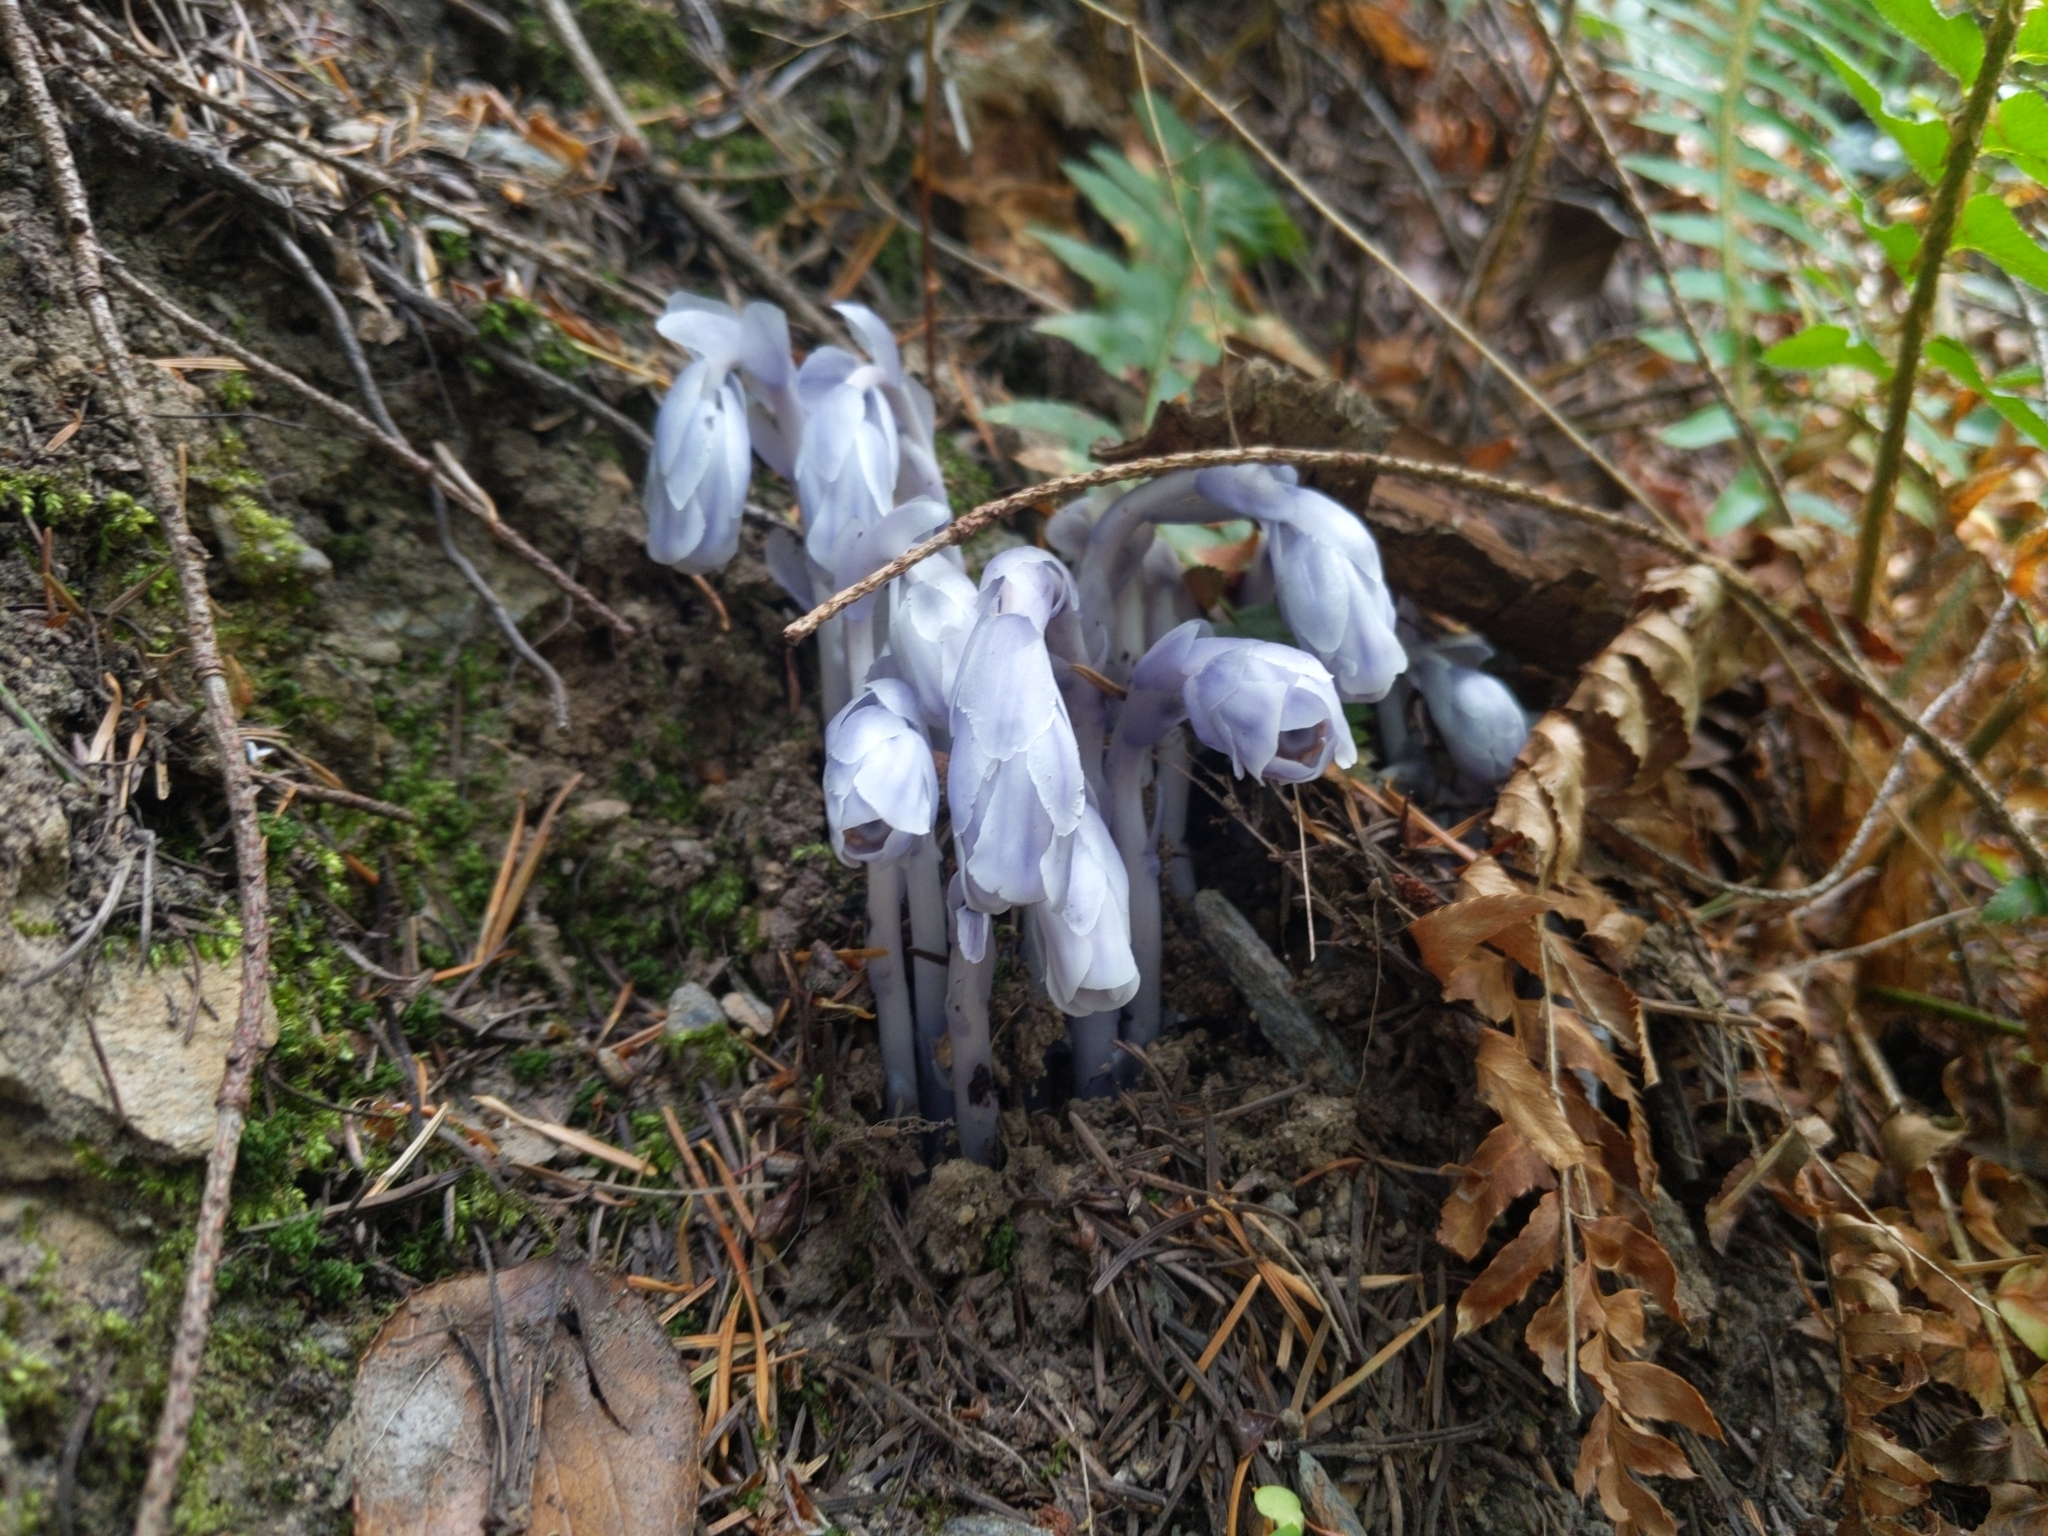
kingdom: Plantae
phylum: Tracheophyta
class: Magnoliopsida
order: Ericales
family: Ericaceae
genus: Monotropa
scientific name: Monotropa uniflora
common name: Convulsion root
